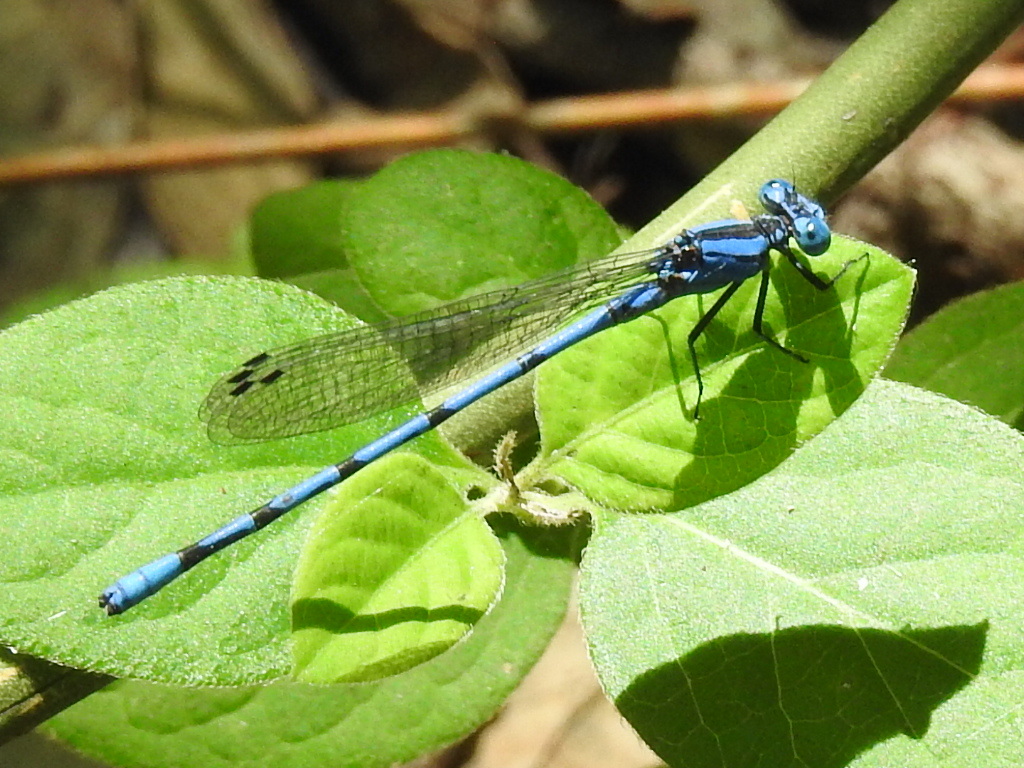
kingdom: Animalia
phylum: Arthropoda
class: Insecta
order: Odonata
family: Coenagrionidae
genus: Argia
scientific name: Argia nahuana
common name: Aztec dancer
